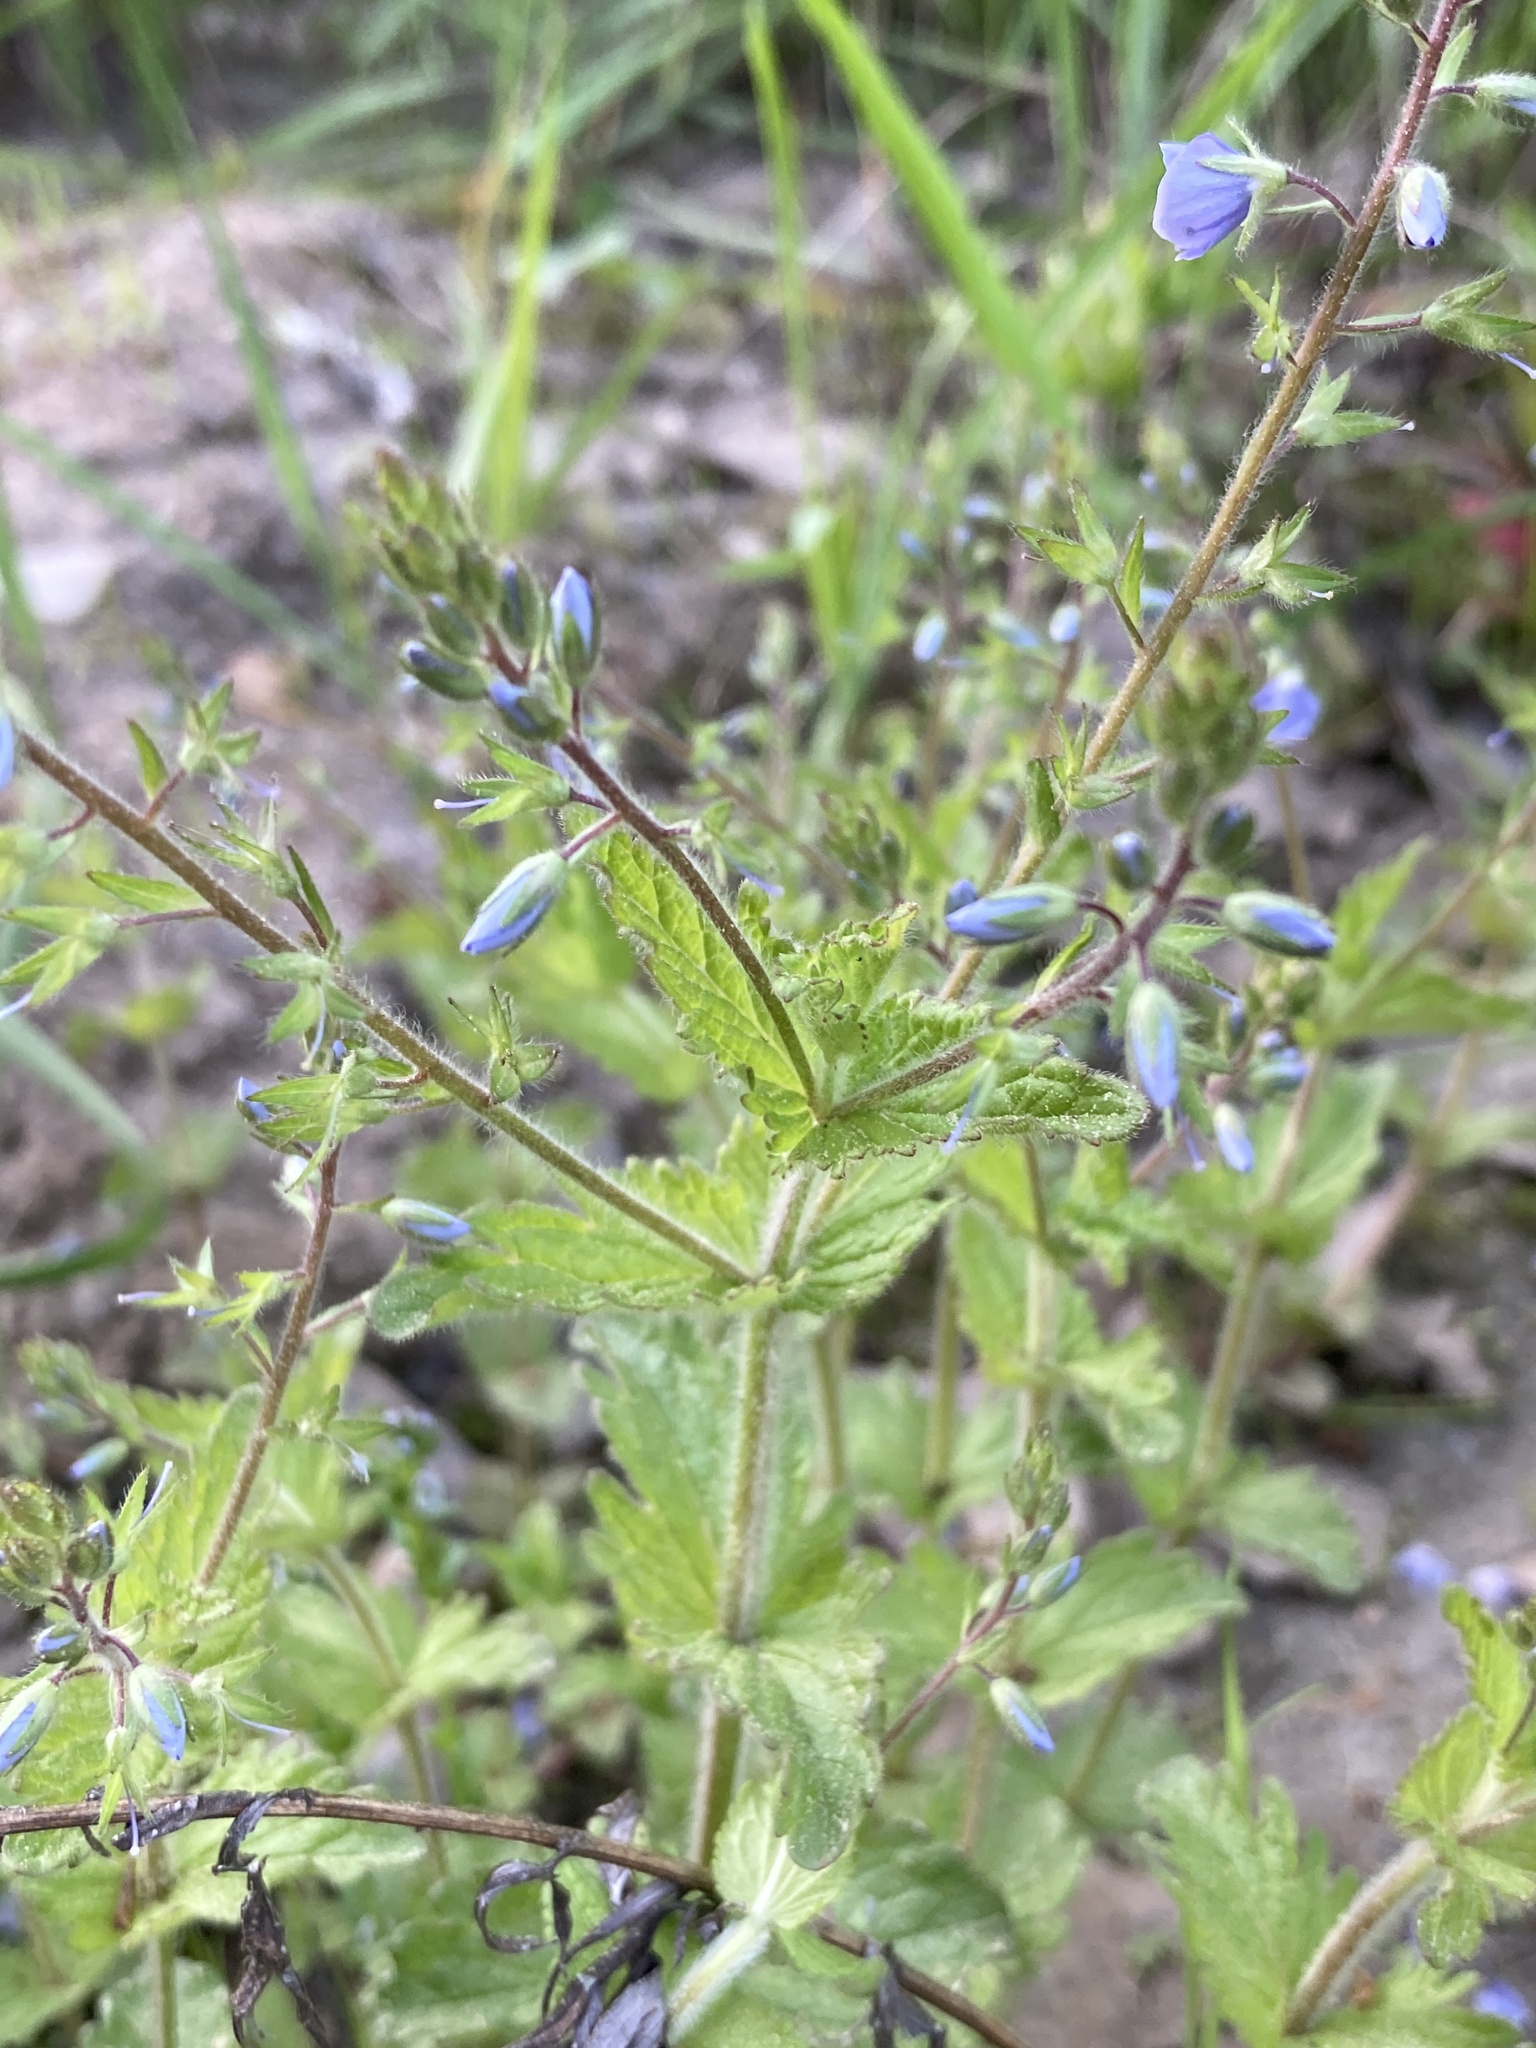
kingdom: Plantae
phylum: Tracheophyta
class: Magnoliopsida
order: Lamiales
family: Plantaginaceae
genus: Veronica
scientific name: Veronica chamaedrys
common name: Germander speedwell
